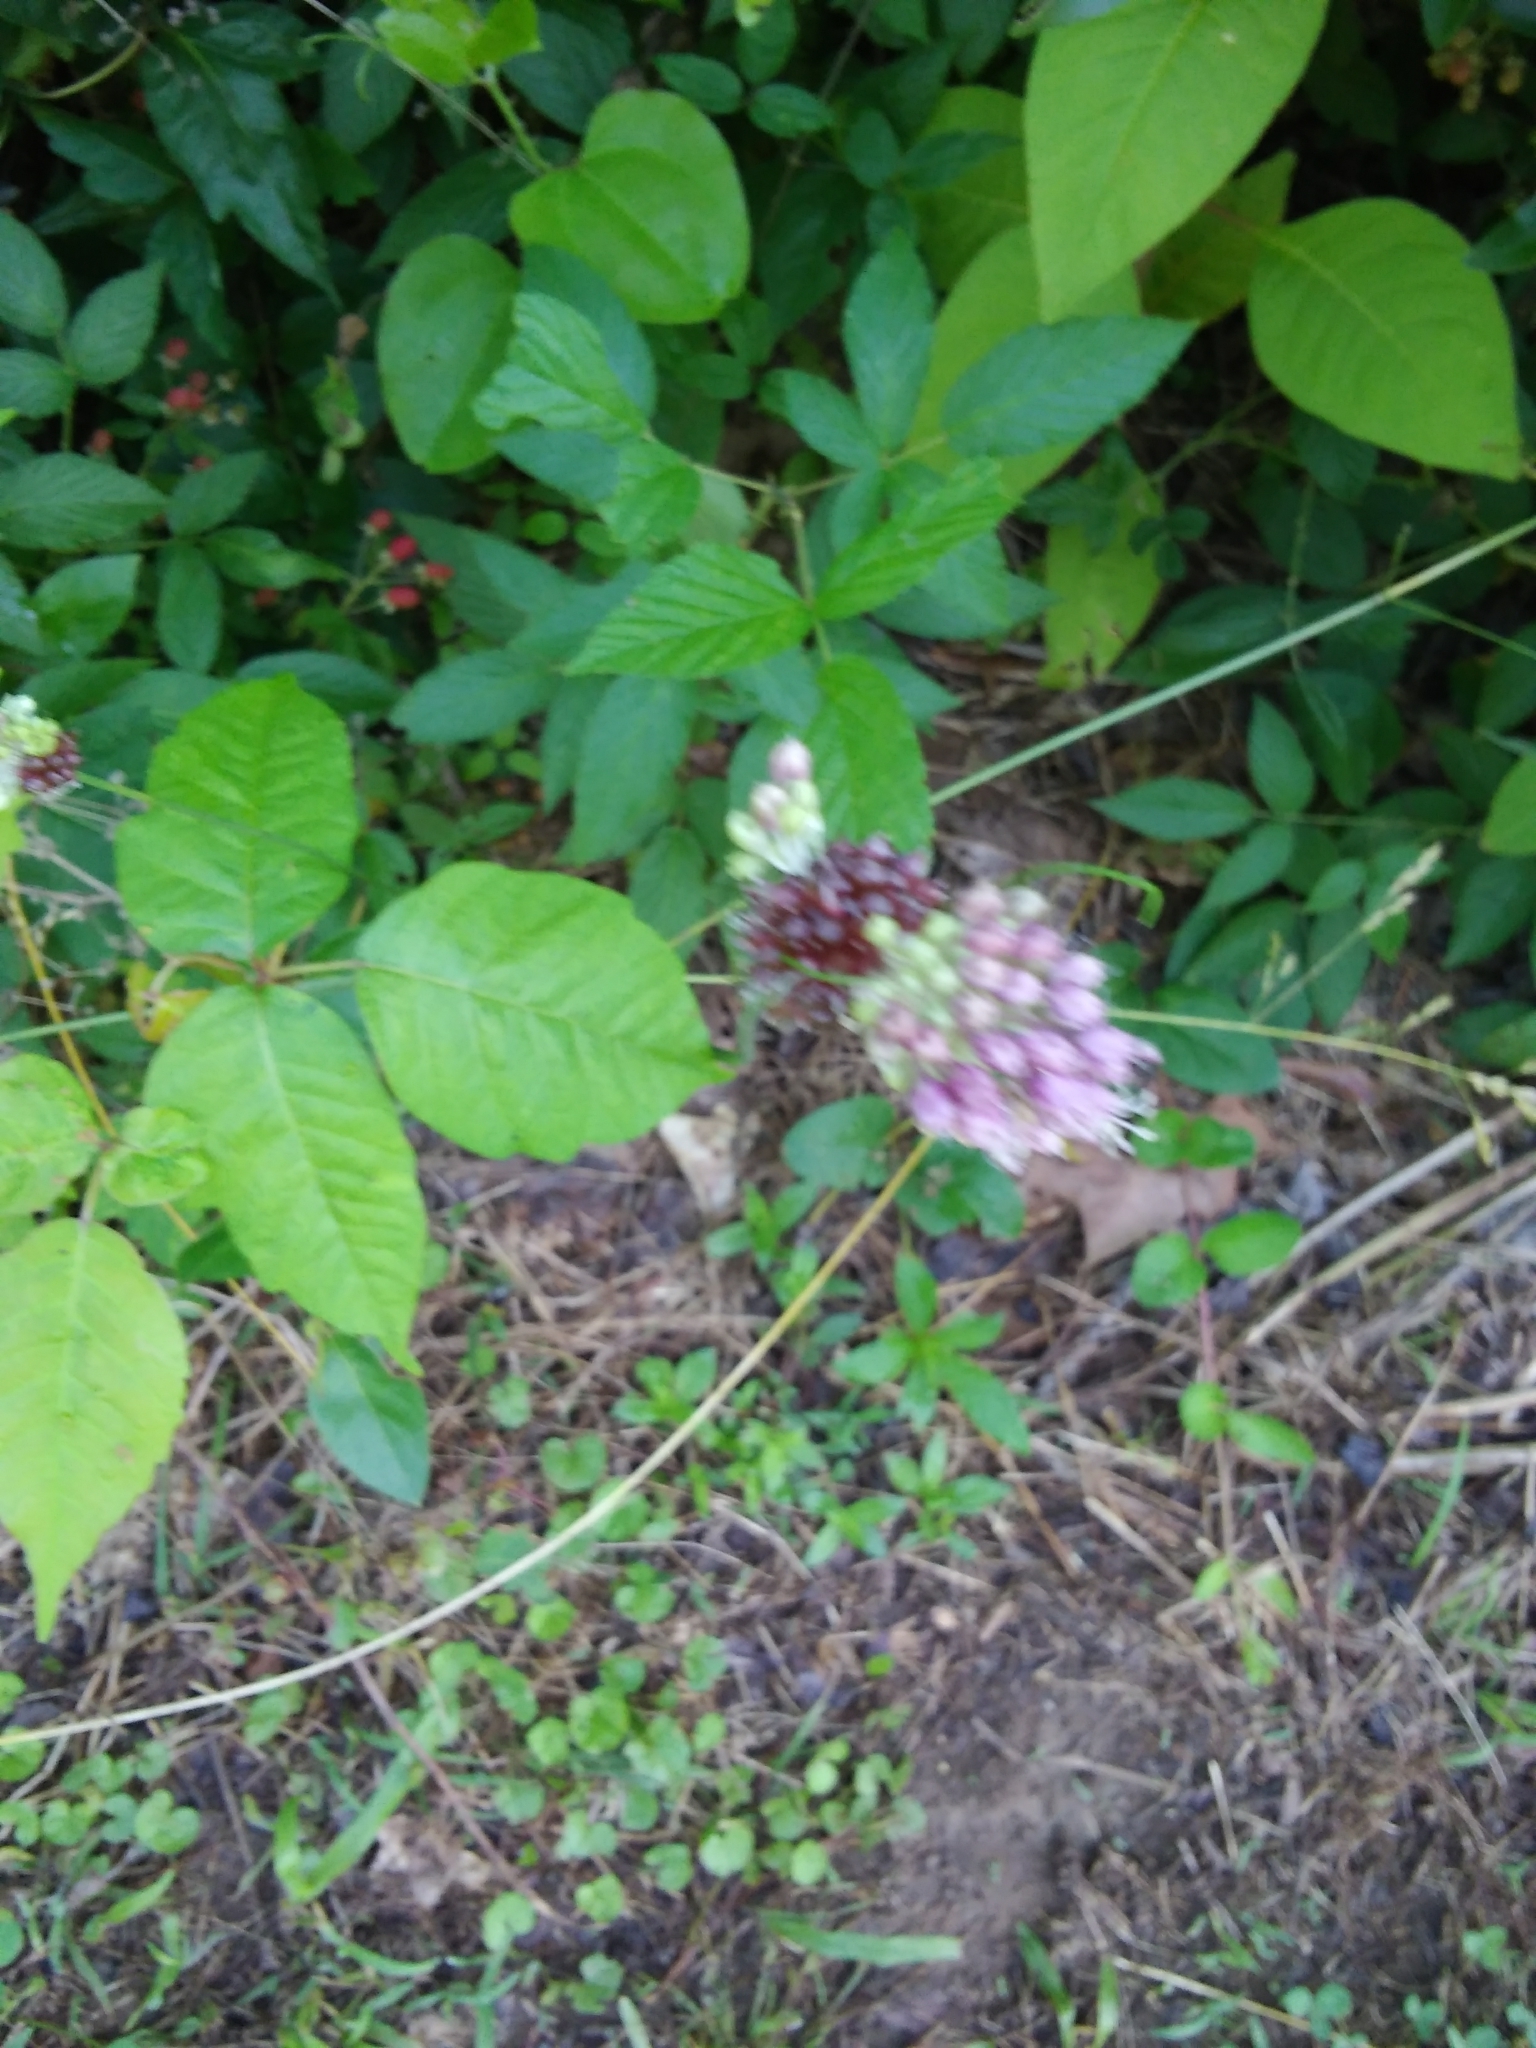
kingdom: Plantae
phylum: Tracheophyta
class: Liliopsida
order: Asparagales
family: Amaryllidaceae
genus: Allium
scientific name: Allium vineale
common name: Crow garlic
